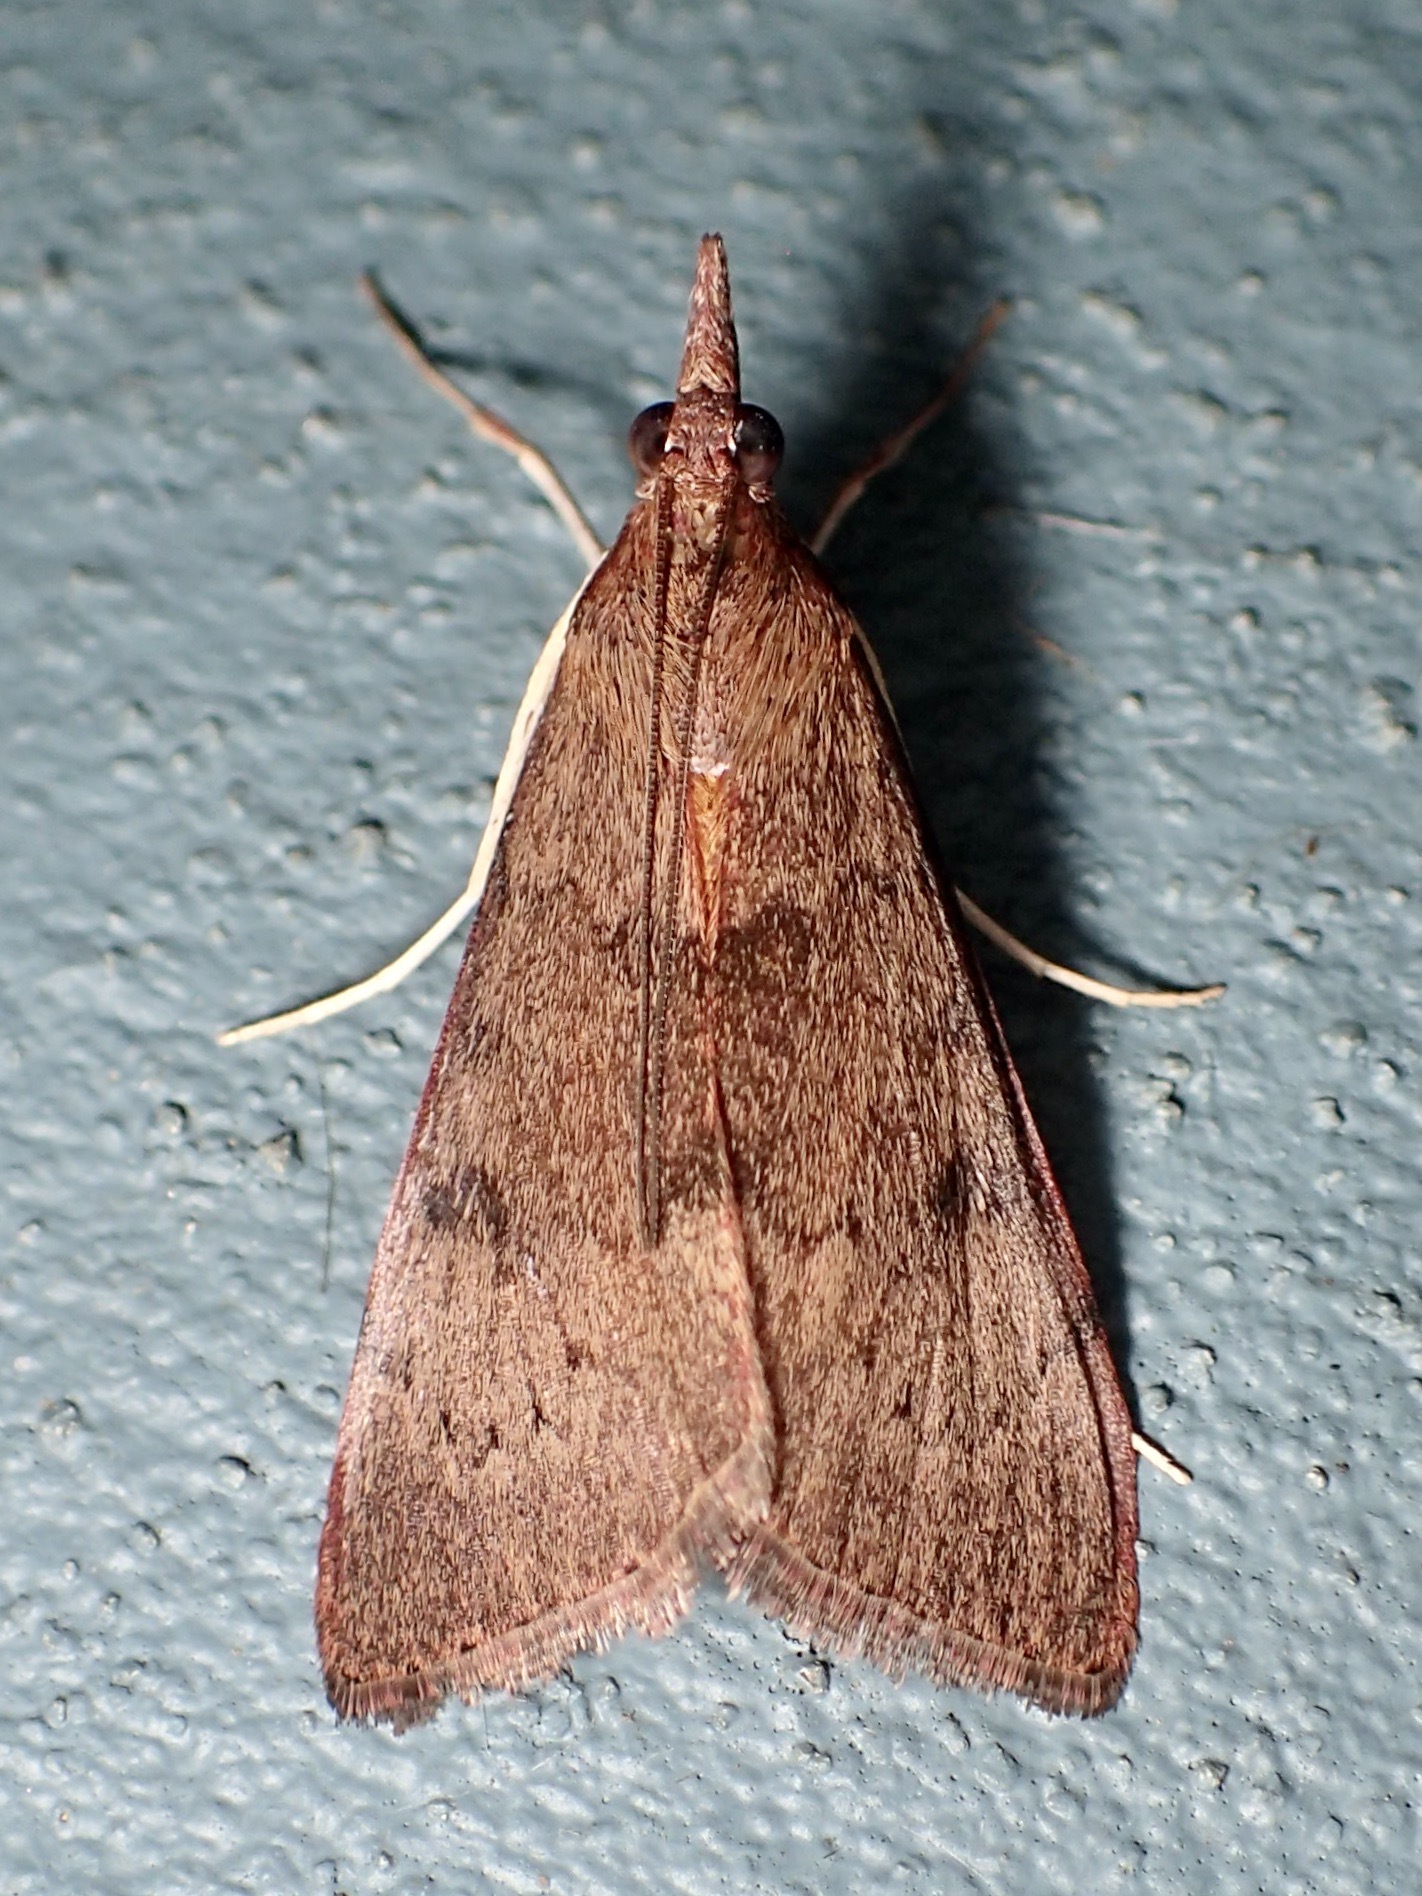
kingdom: Animalia
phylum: Arthropoda
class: Insecta
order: Lepidoptera
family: Crambidae
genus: Uresiphita
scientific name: Uresiphita ornithopteralis
